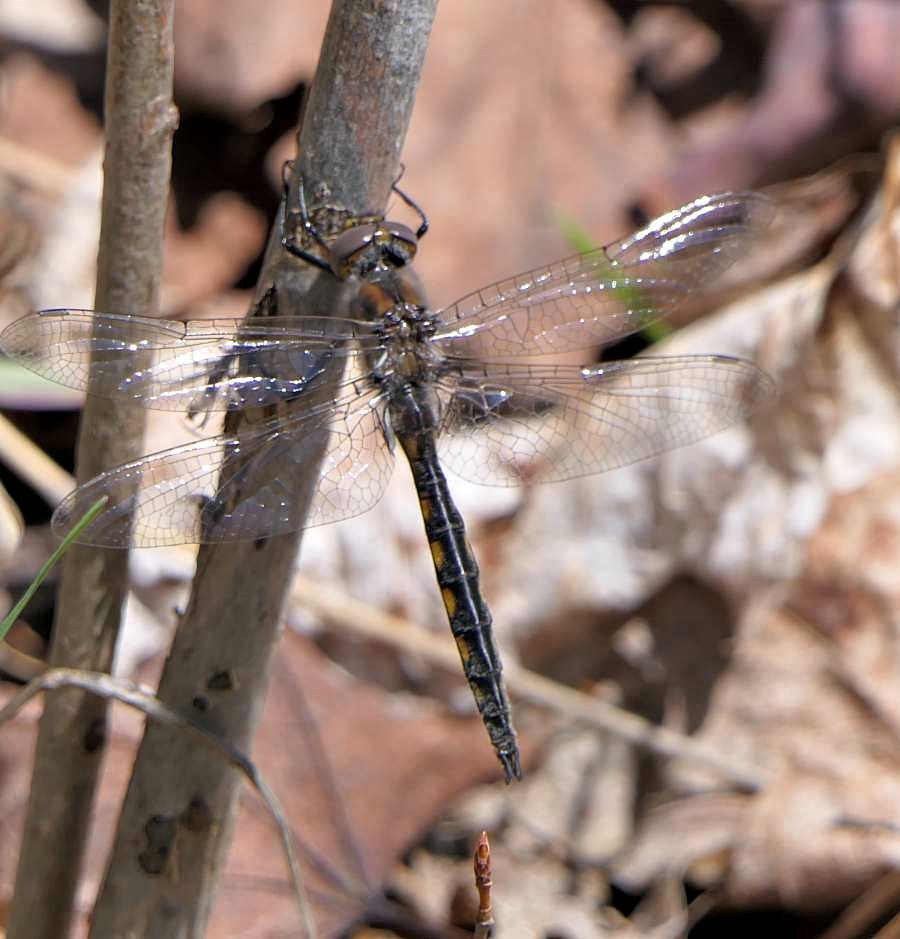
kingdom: Animalia
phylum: Arthropoda
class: Insecta
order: Odonata
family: Corduliidae
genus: Epitheca
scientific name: Epitheca canis
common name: Beaverpond baskettail
